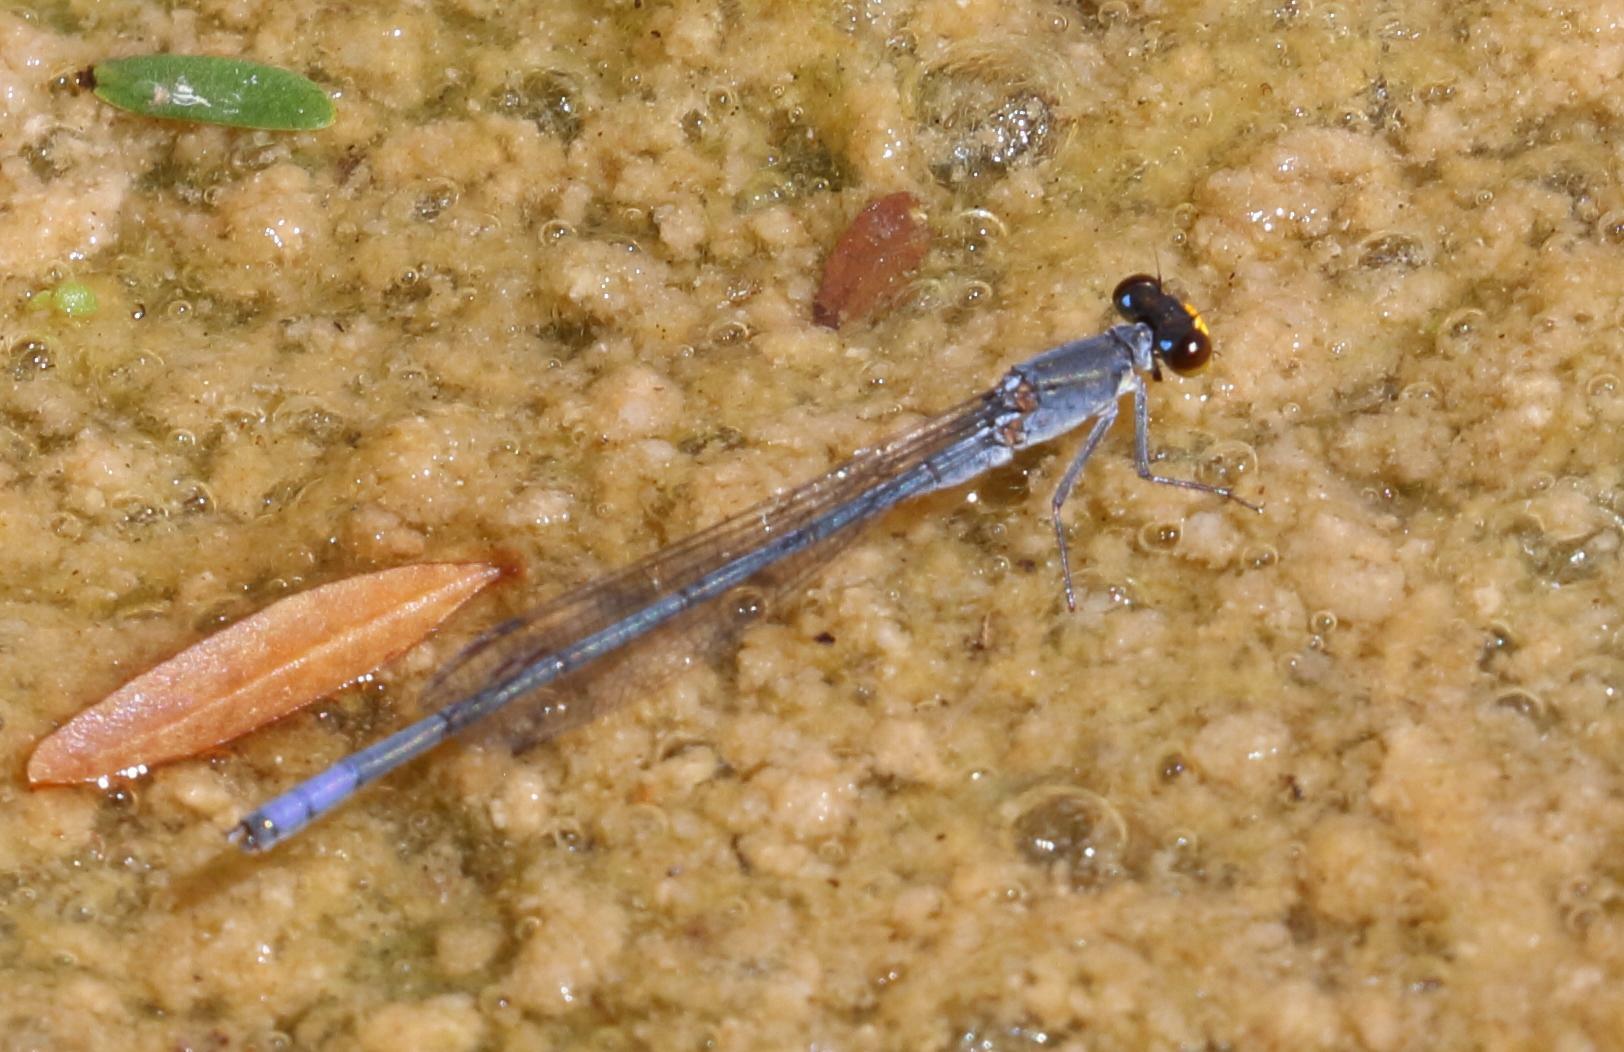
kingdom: Animalia
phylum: Arthropoda
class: Insecta
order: Odonata
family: Coenagrionidae
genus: Pseudagrion
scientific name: Pseudagrion citricola
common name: Yellow-faced sprite
